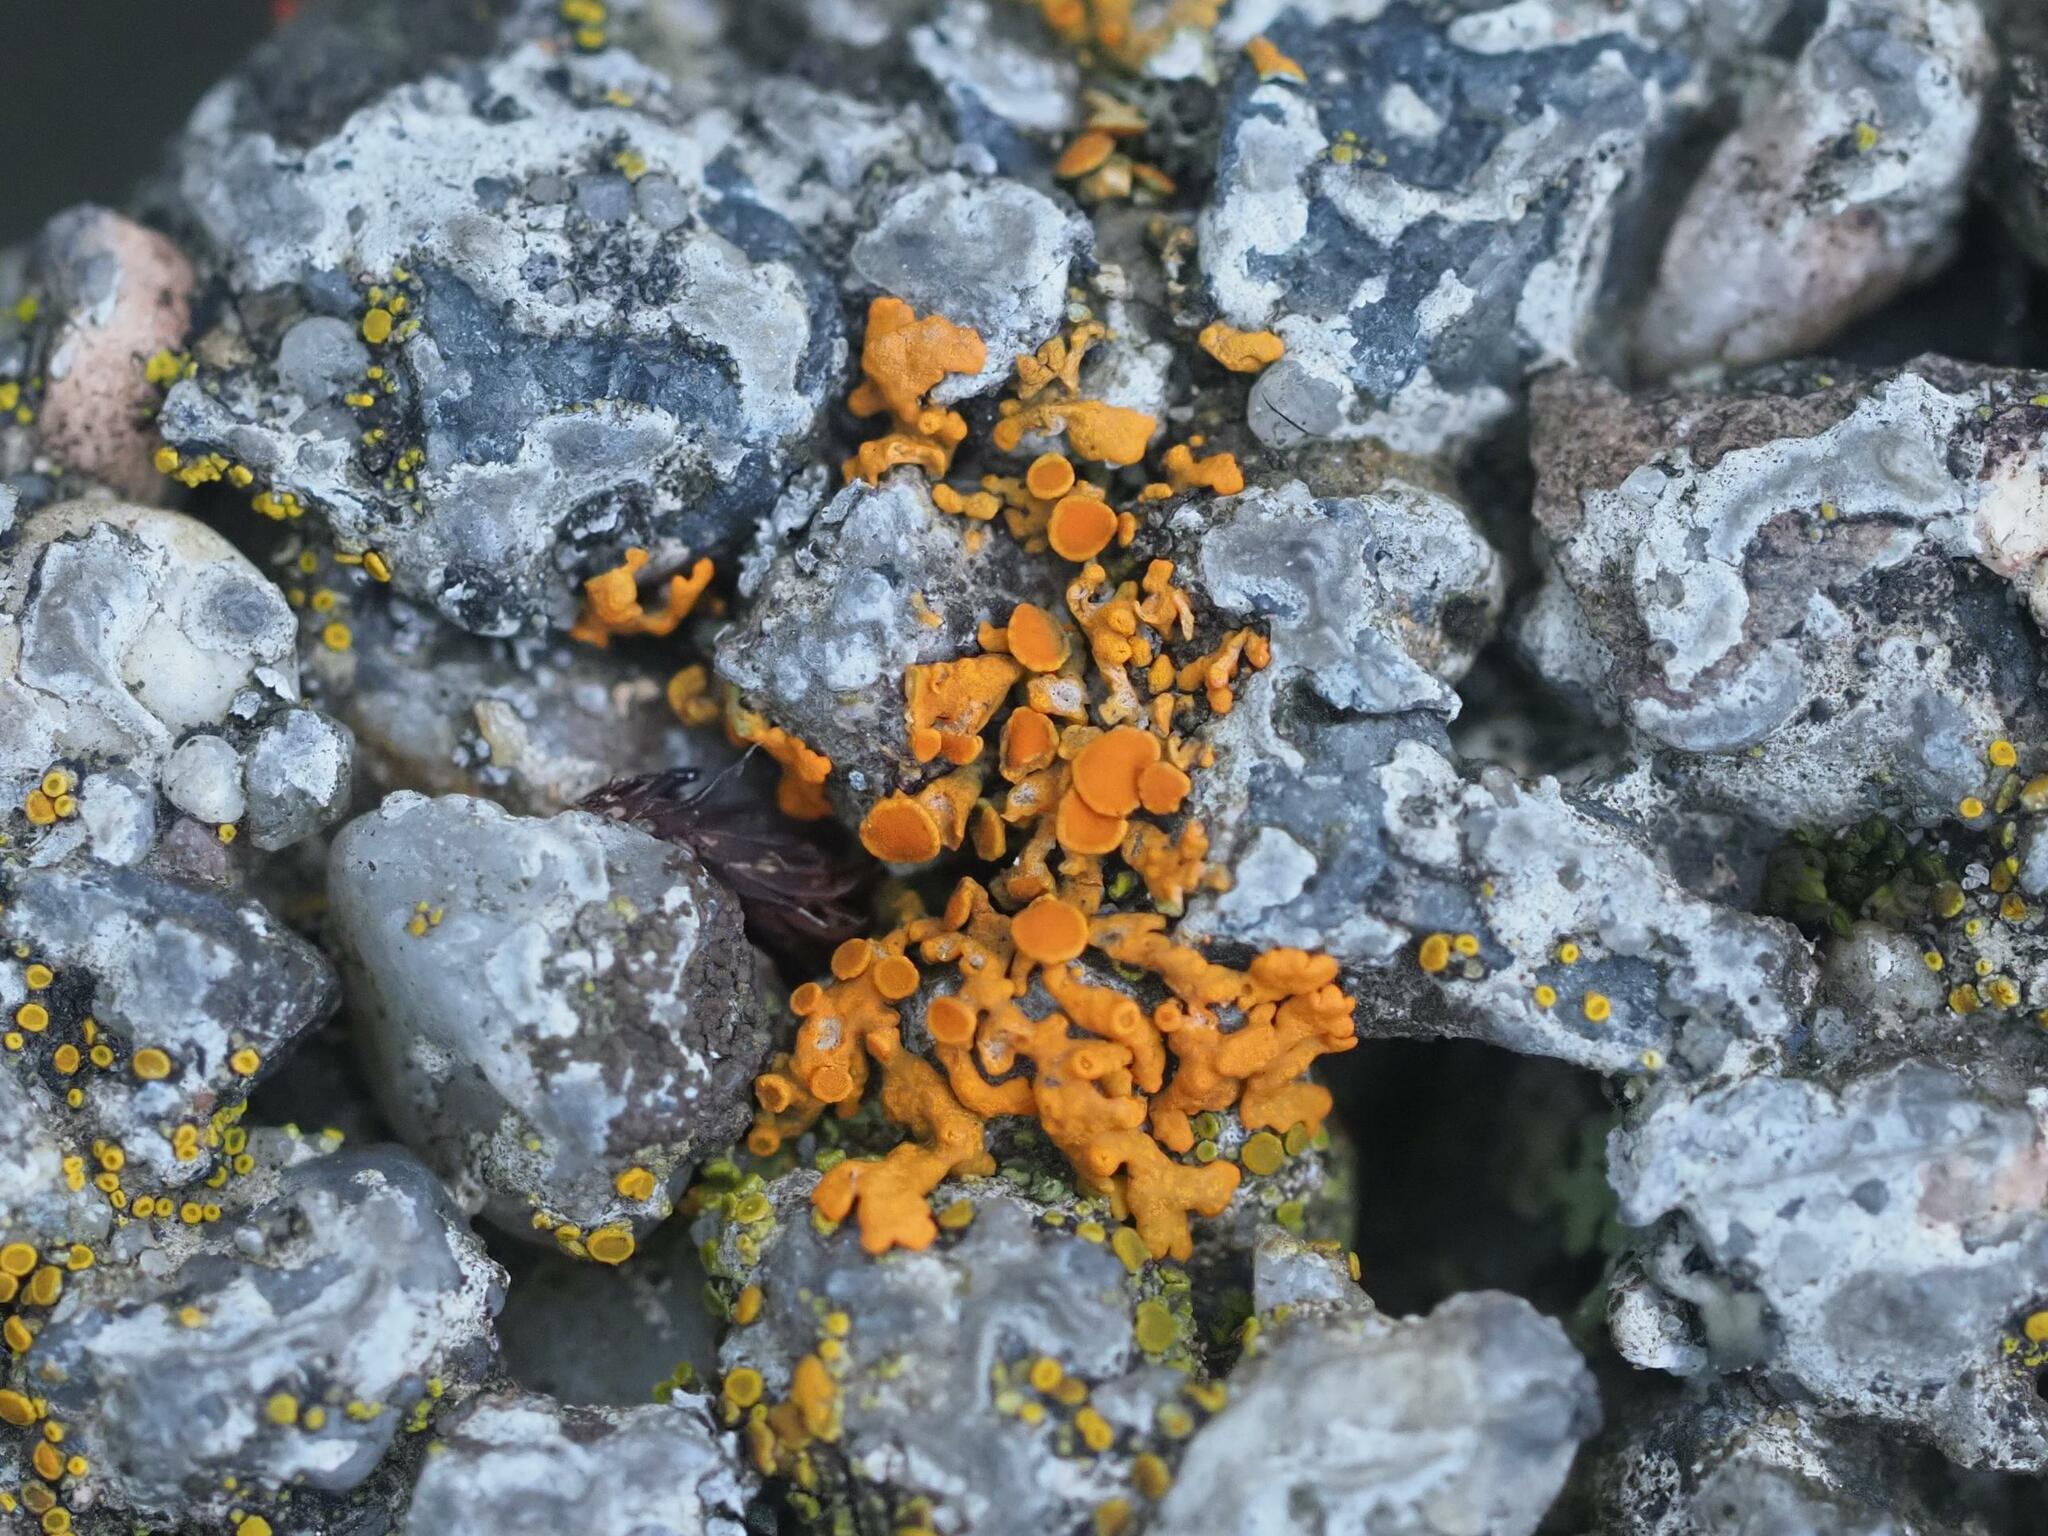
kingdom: Fungi
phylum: Ascomycota
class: Lecanoromycetes
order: Teloschistales
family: Teloschistaceae
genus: Xanthoria
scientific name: Xanthoria elegans
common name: Elegant sunburst lichen
